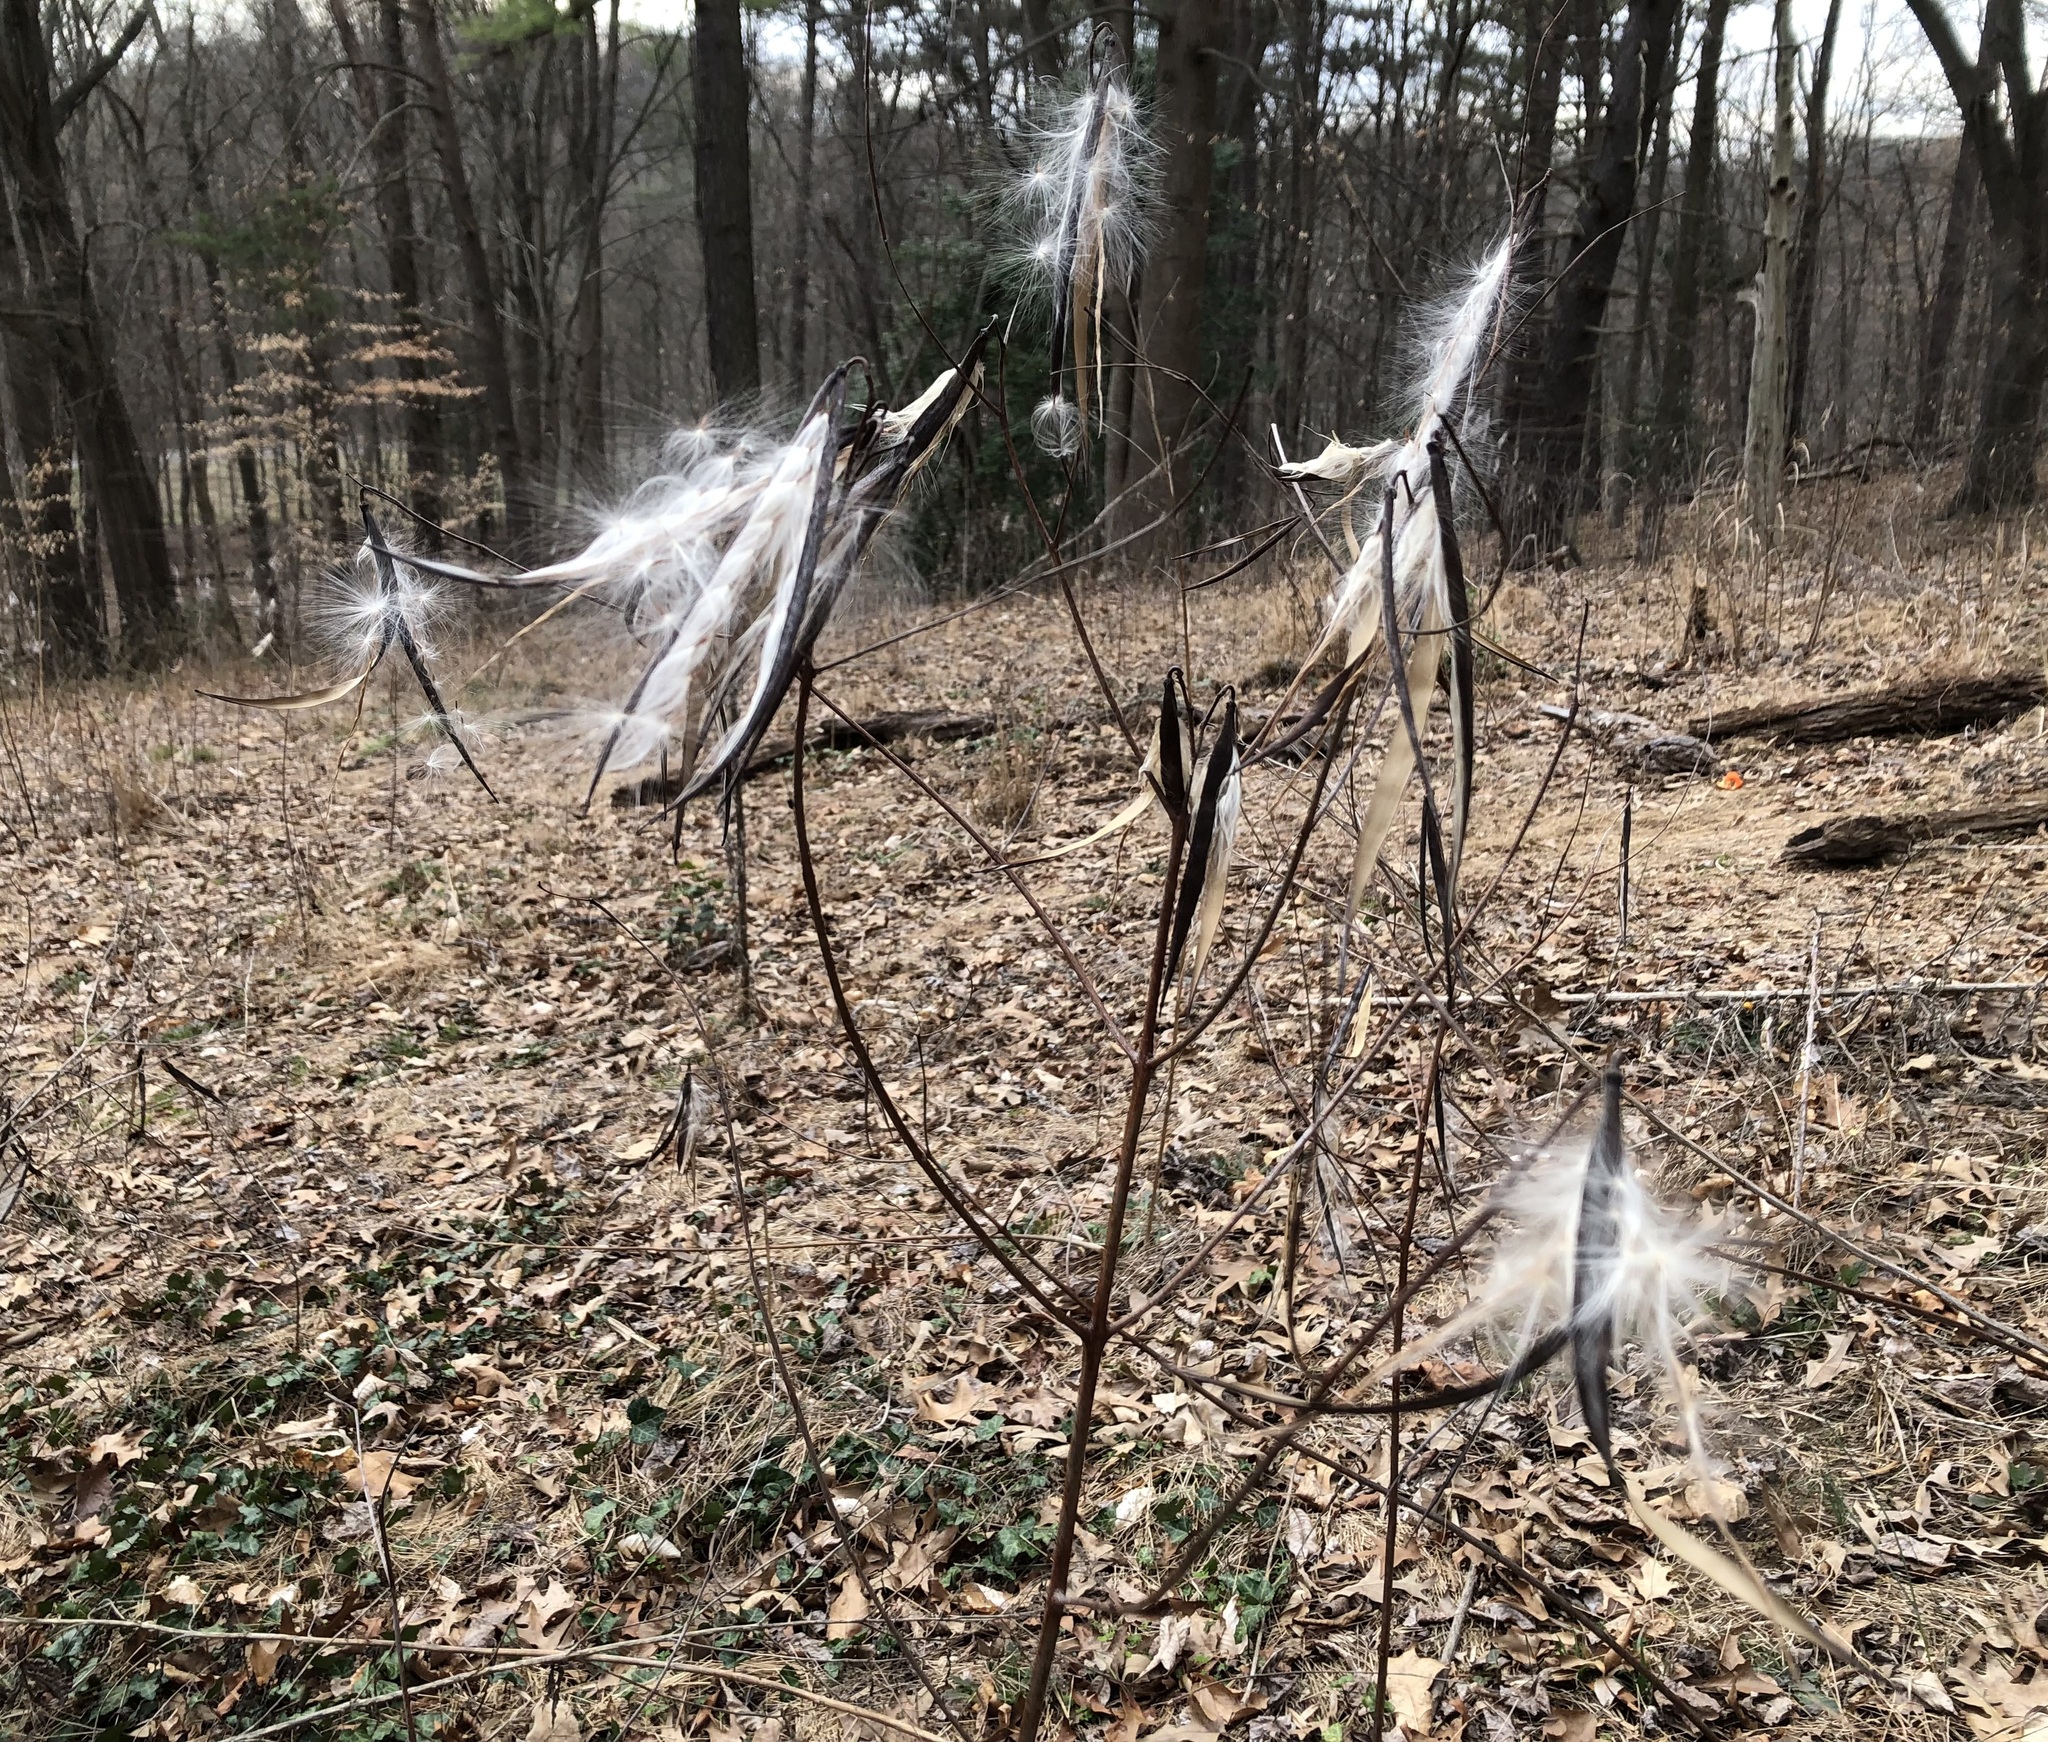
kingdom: Plantae
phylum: Tracheophyta
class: Magnoliopsida
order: Gentianales
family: Apocynaceae
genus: Apocynum
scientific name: Apocynum cannabinum
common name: Hemp dogbane
